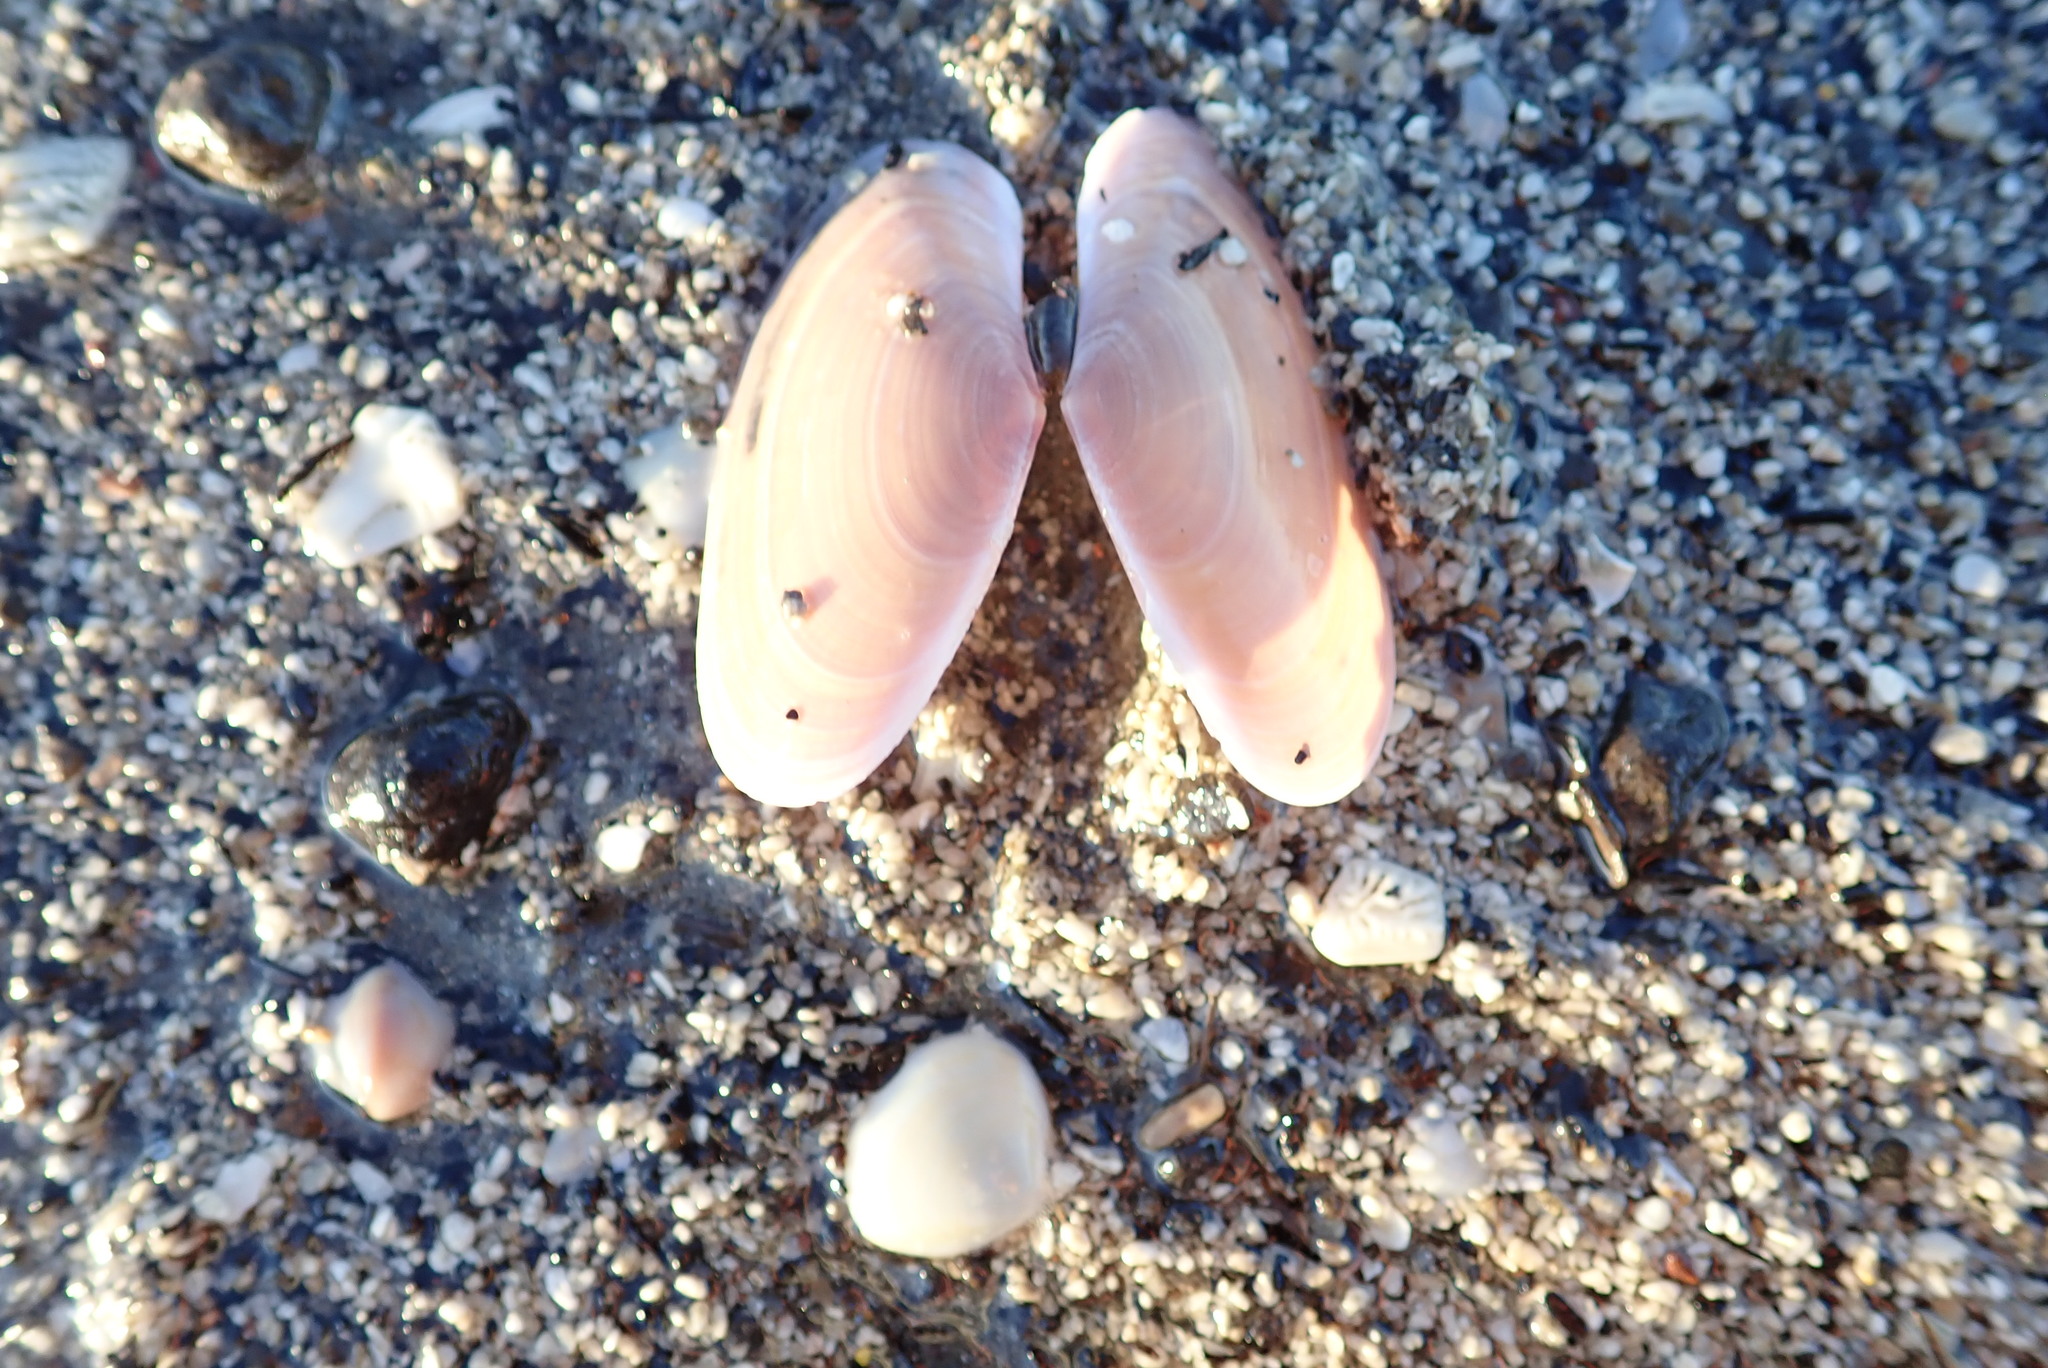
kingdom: Animalia
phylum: Mollusca
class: Bivalvia
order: Cardiida
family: Psammobiidae
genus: Gari
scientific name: Gari lineolata
